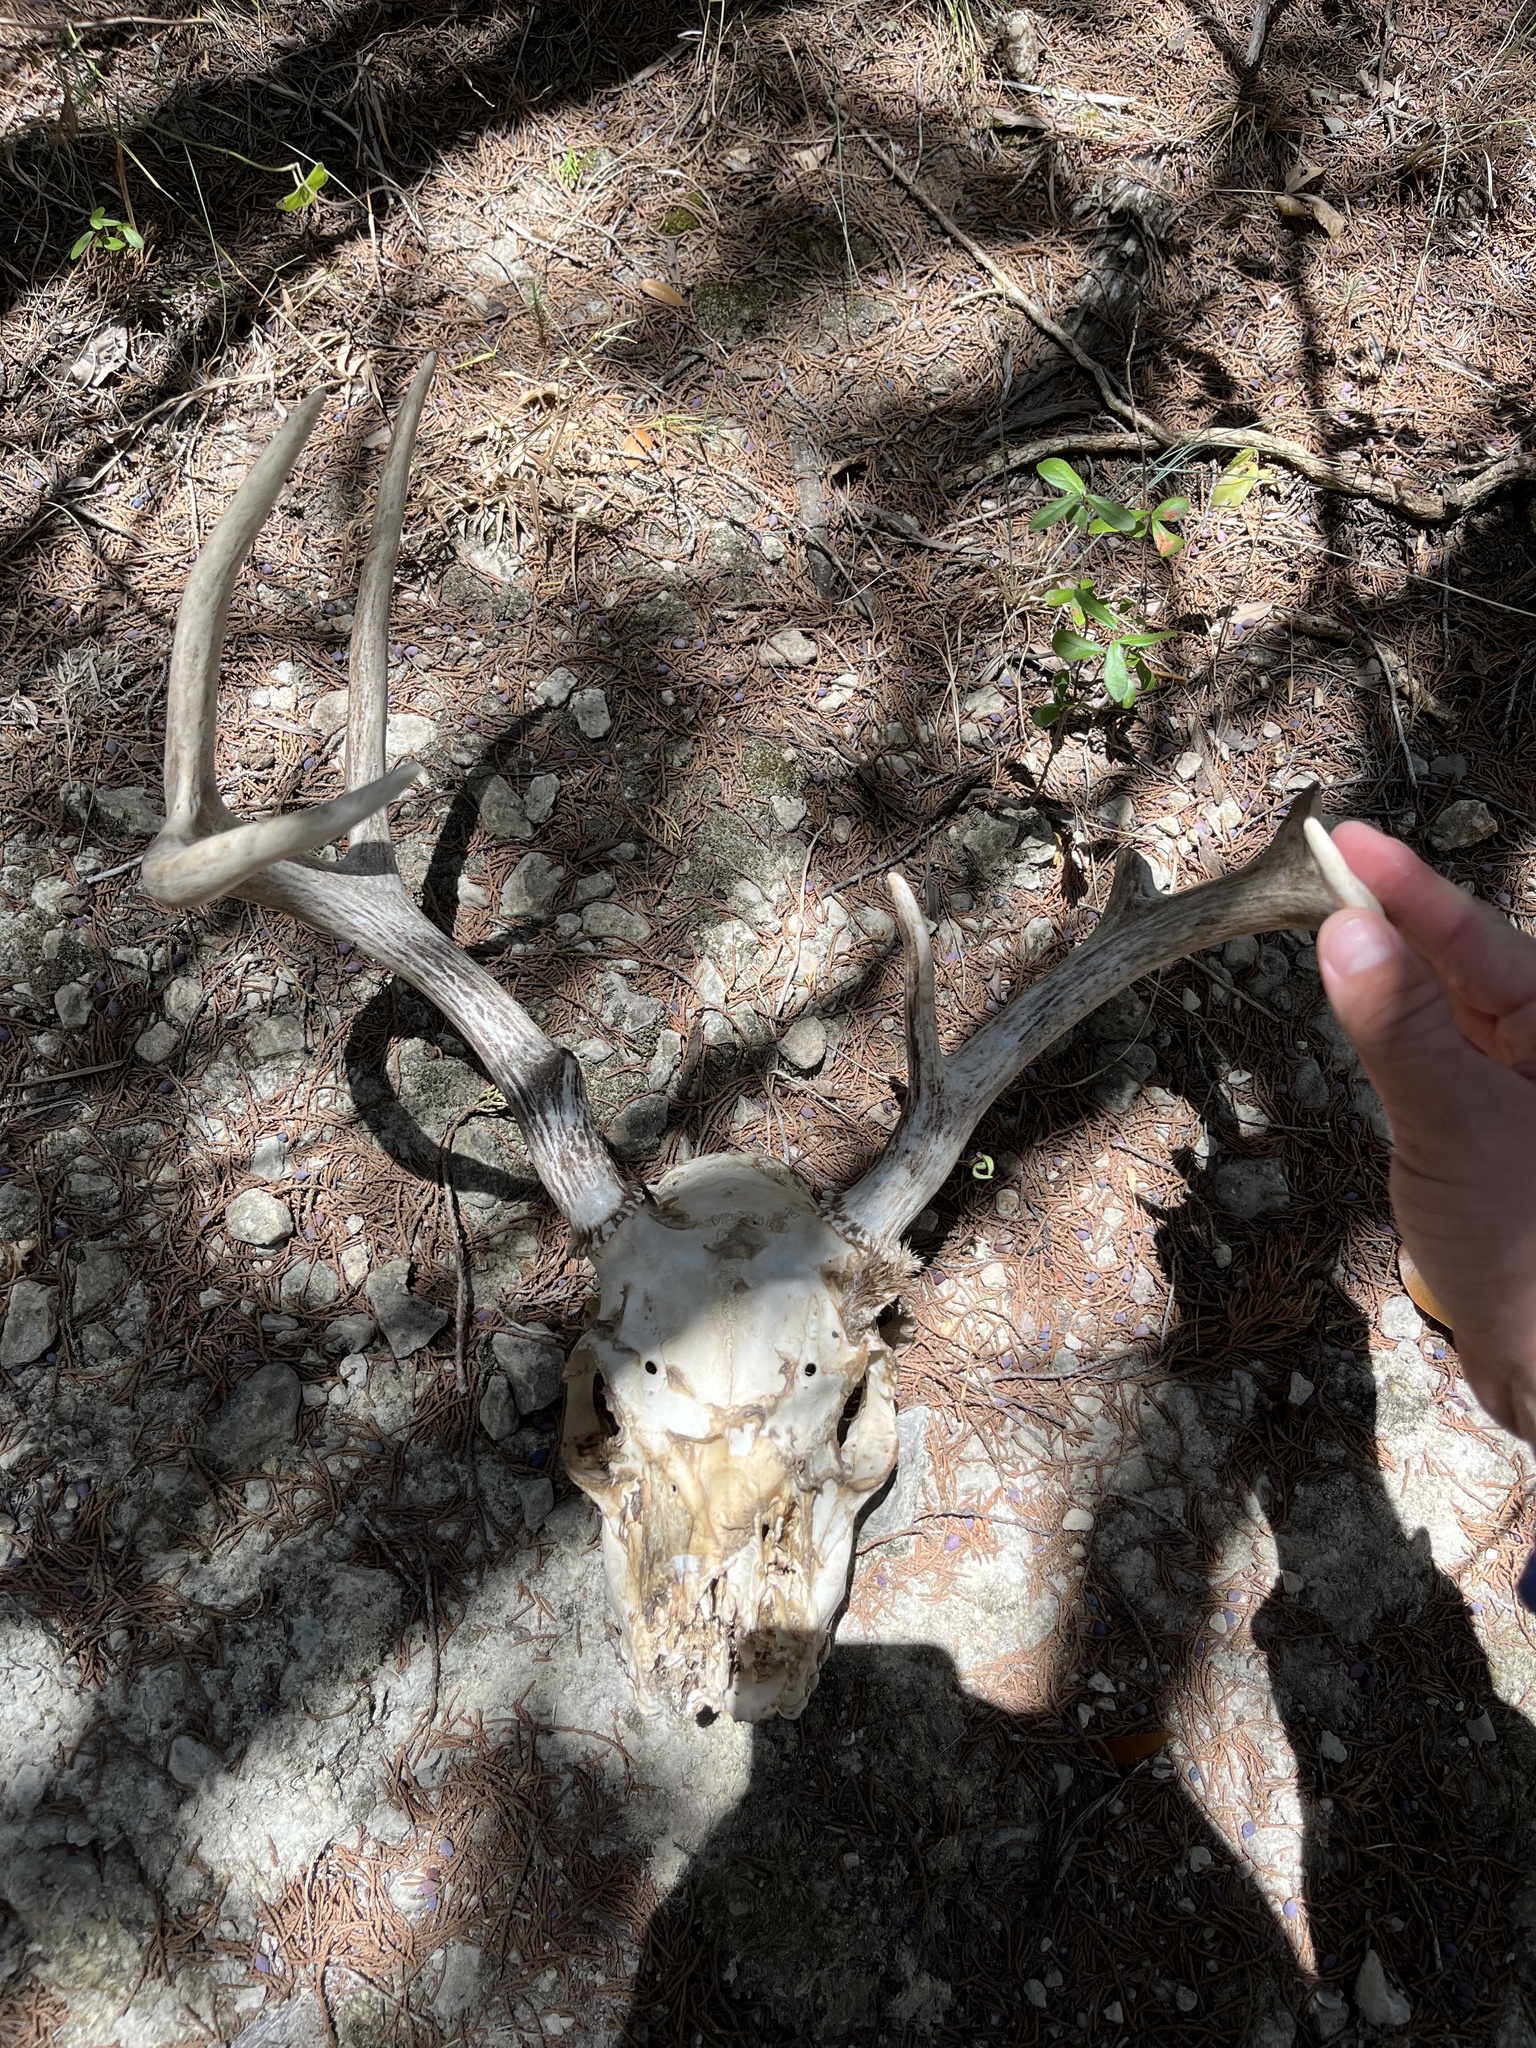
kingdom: Animalia
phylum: Chordata
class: Mammalia
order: Artiodactyla
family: Cervidae
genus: Odocoileus
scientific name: Odocoileus virginianus
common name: White-tailed deer
